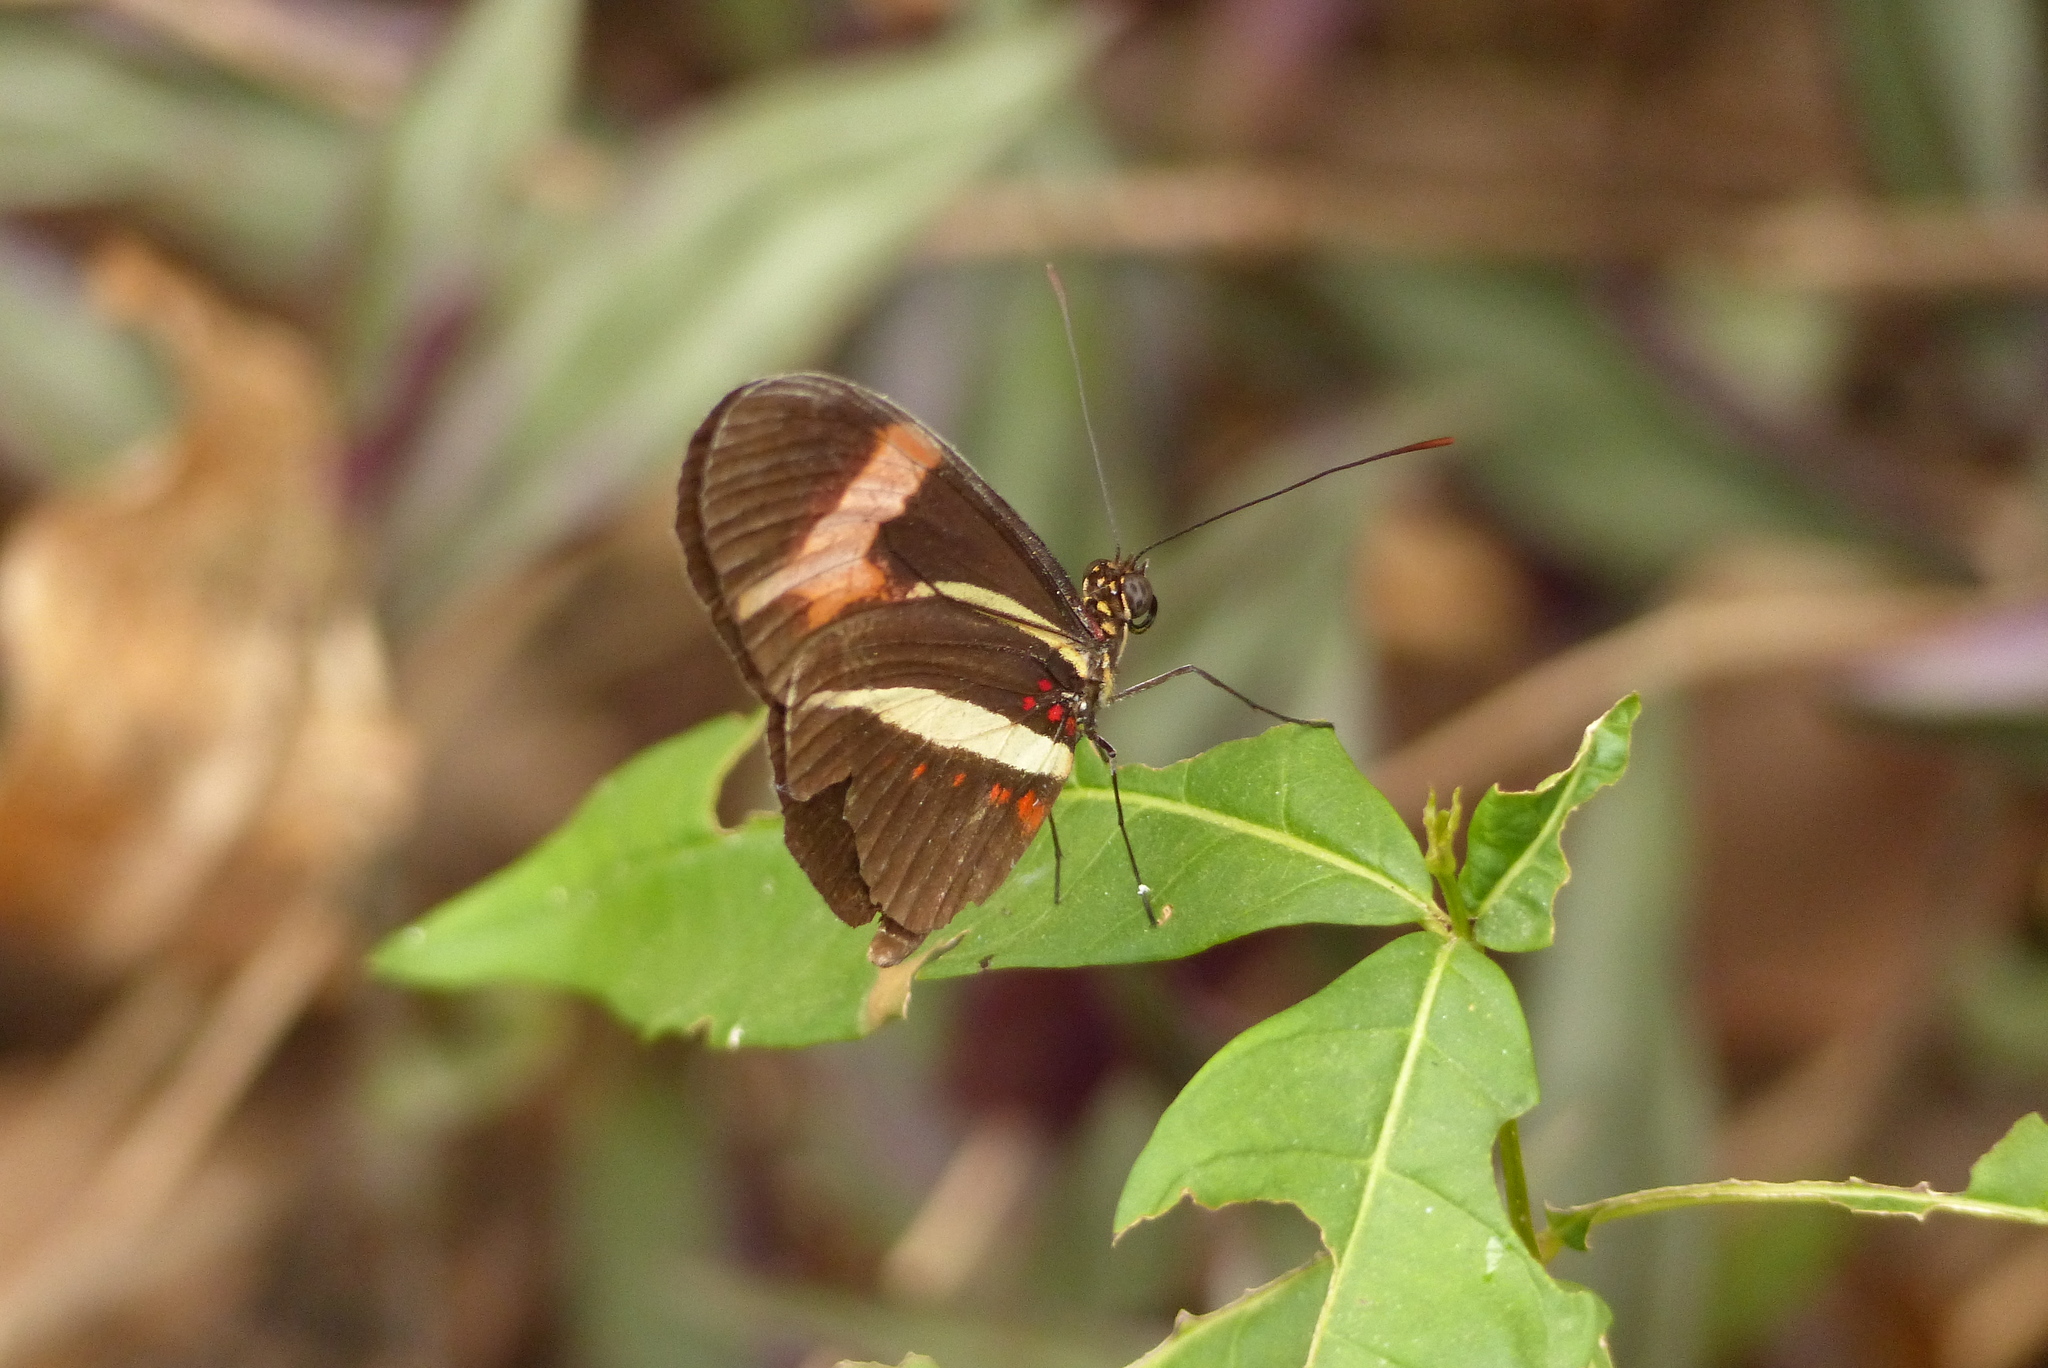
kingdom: Animalia
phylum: Arthropoda
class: Insecta
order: Lepidoptera
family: Nymphalidae
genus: Heliconius
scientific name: Heliconius erato
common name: Common patch longwing
